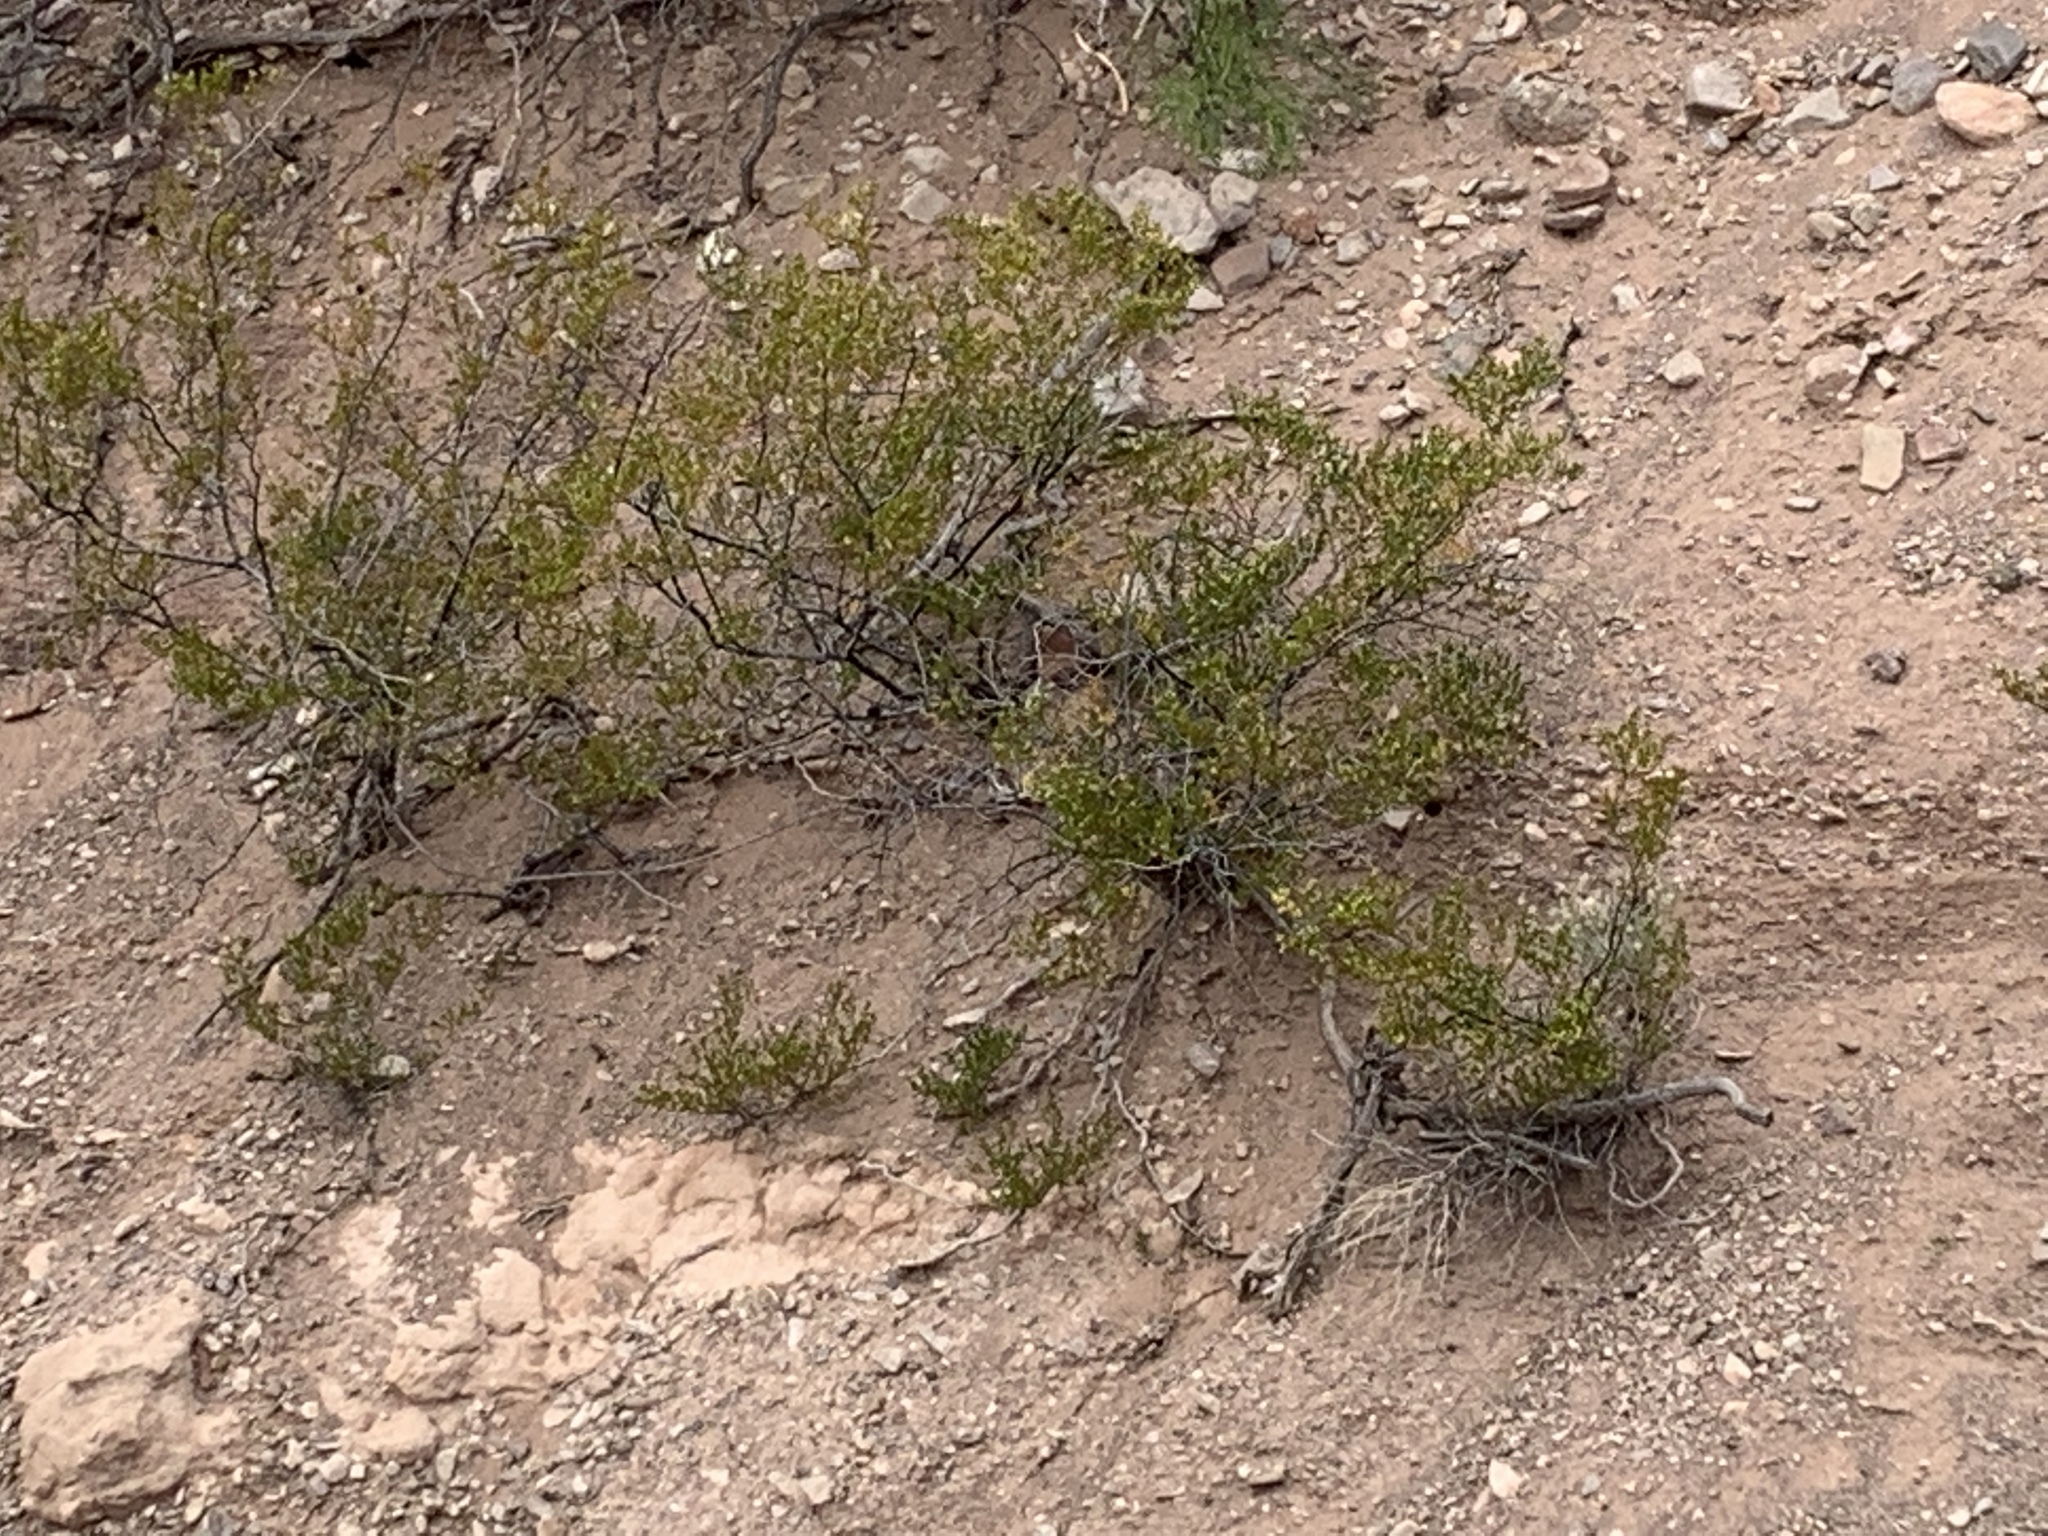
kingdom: Plantae
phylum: Tracheophyta
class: Magnoliopsida
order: Zygophyllales
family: Zygophyllaceae
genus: Larrea
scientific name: Larrea tridentata
